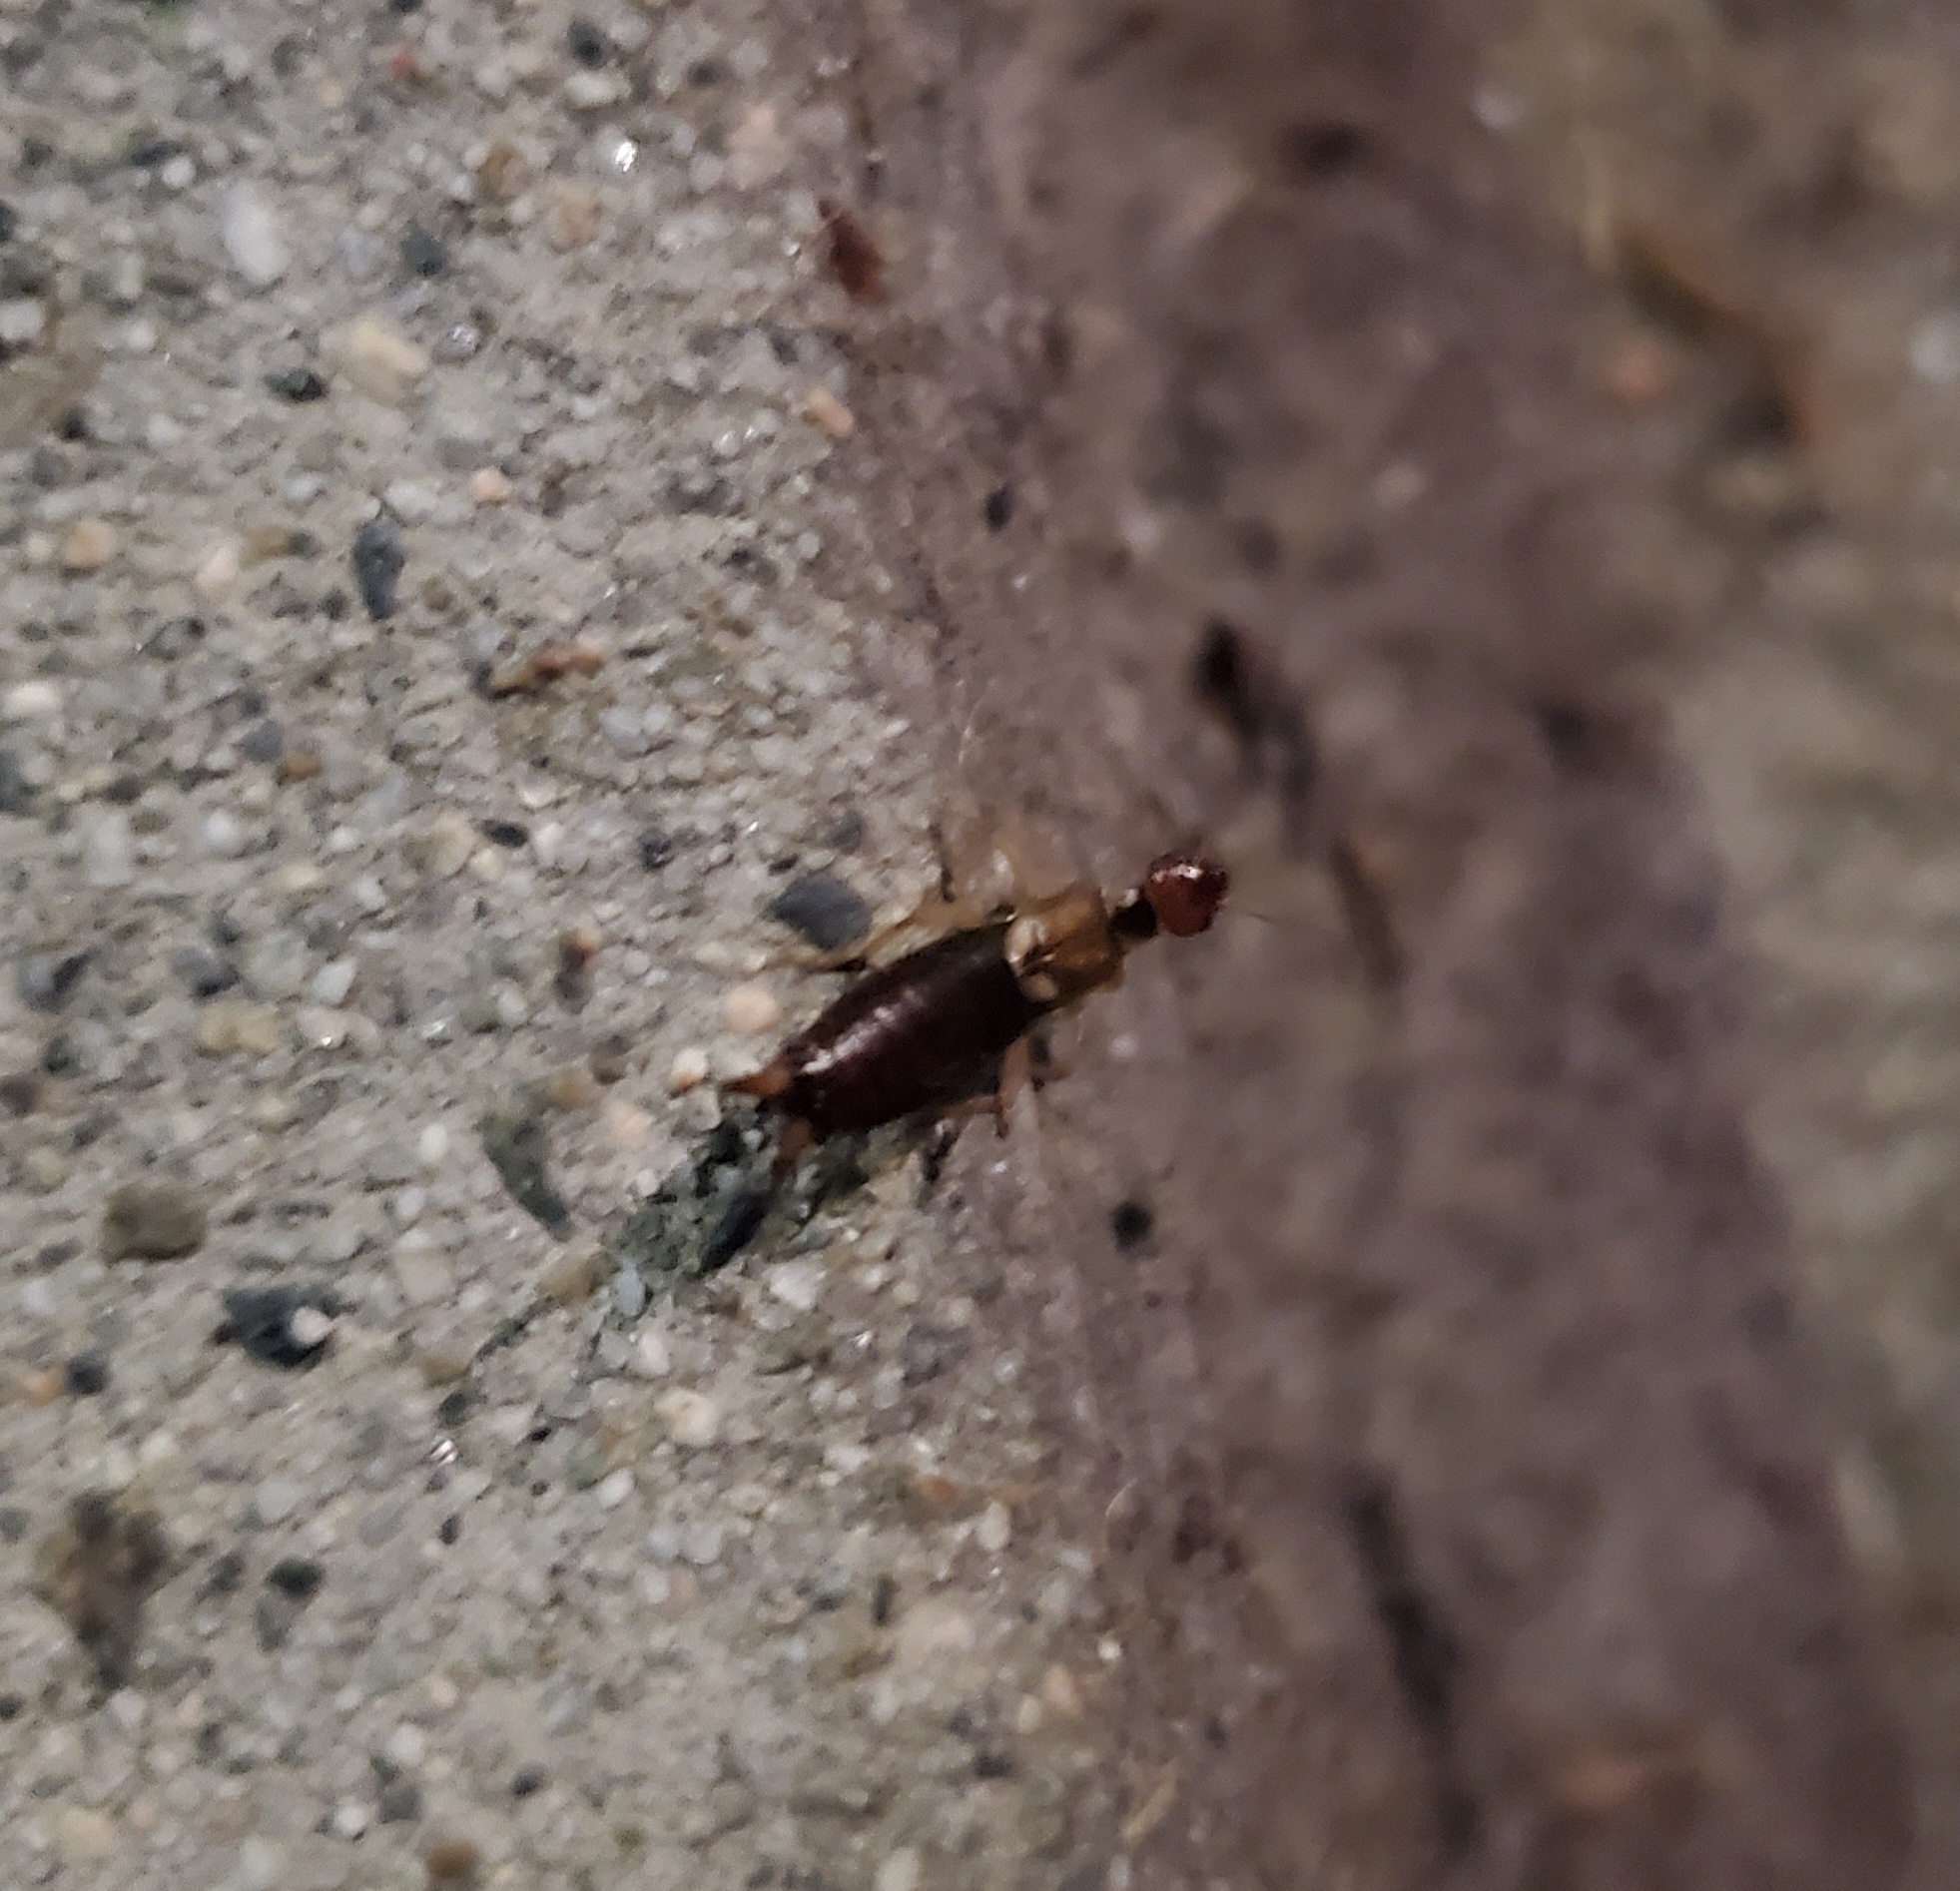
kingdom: Animalia
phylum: Arthropoda
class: Insecta
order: Dermaptera
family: Forficulidae
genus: Forficula
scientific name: Forficula
